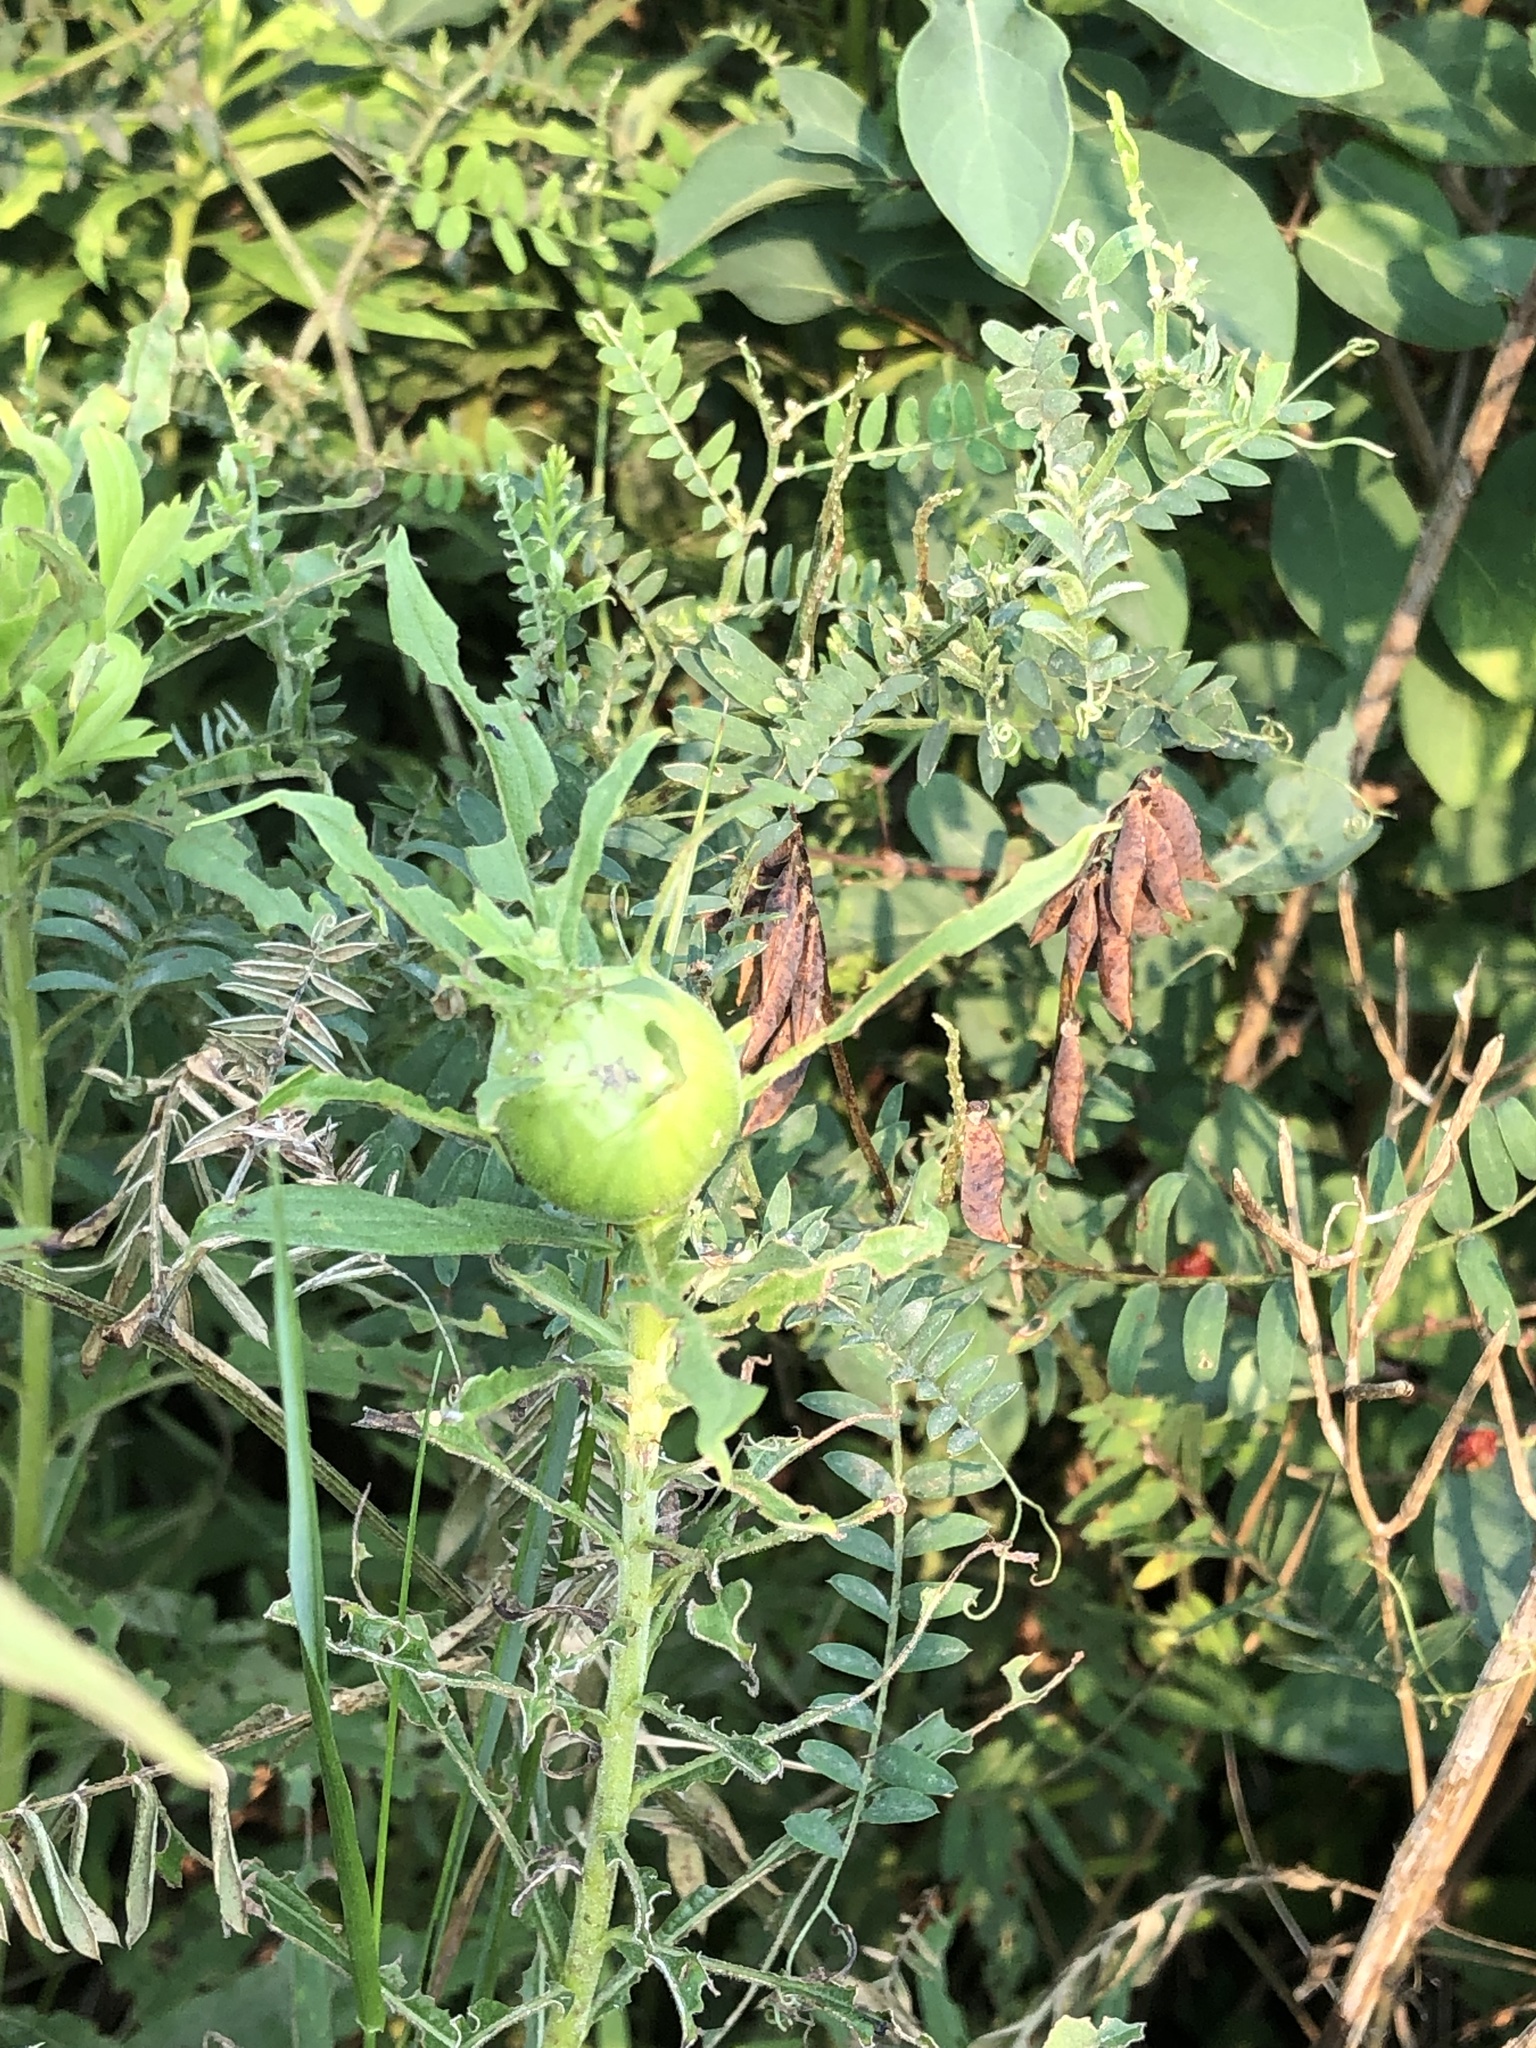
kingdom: Animalia
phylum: Arthropoda
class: Insecta
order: Diptera
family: Tephritidae
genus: Eurosta
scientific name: Eurosta solidaginis
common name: Goldenrod gall fly
